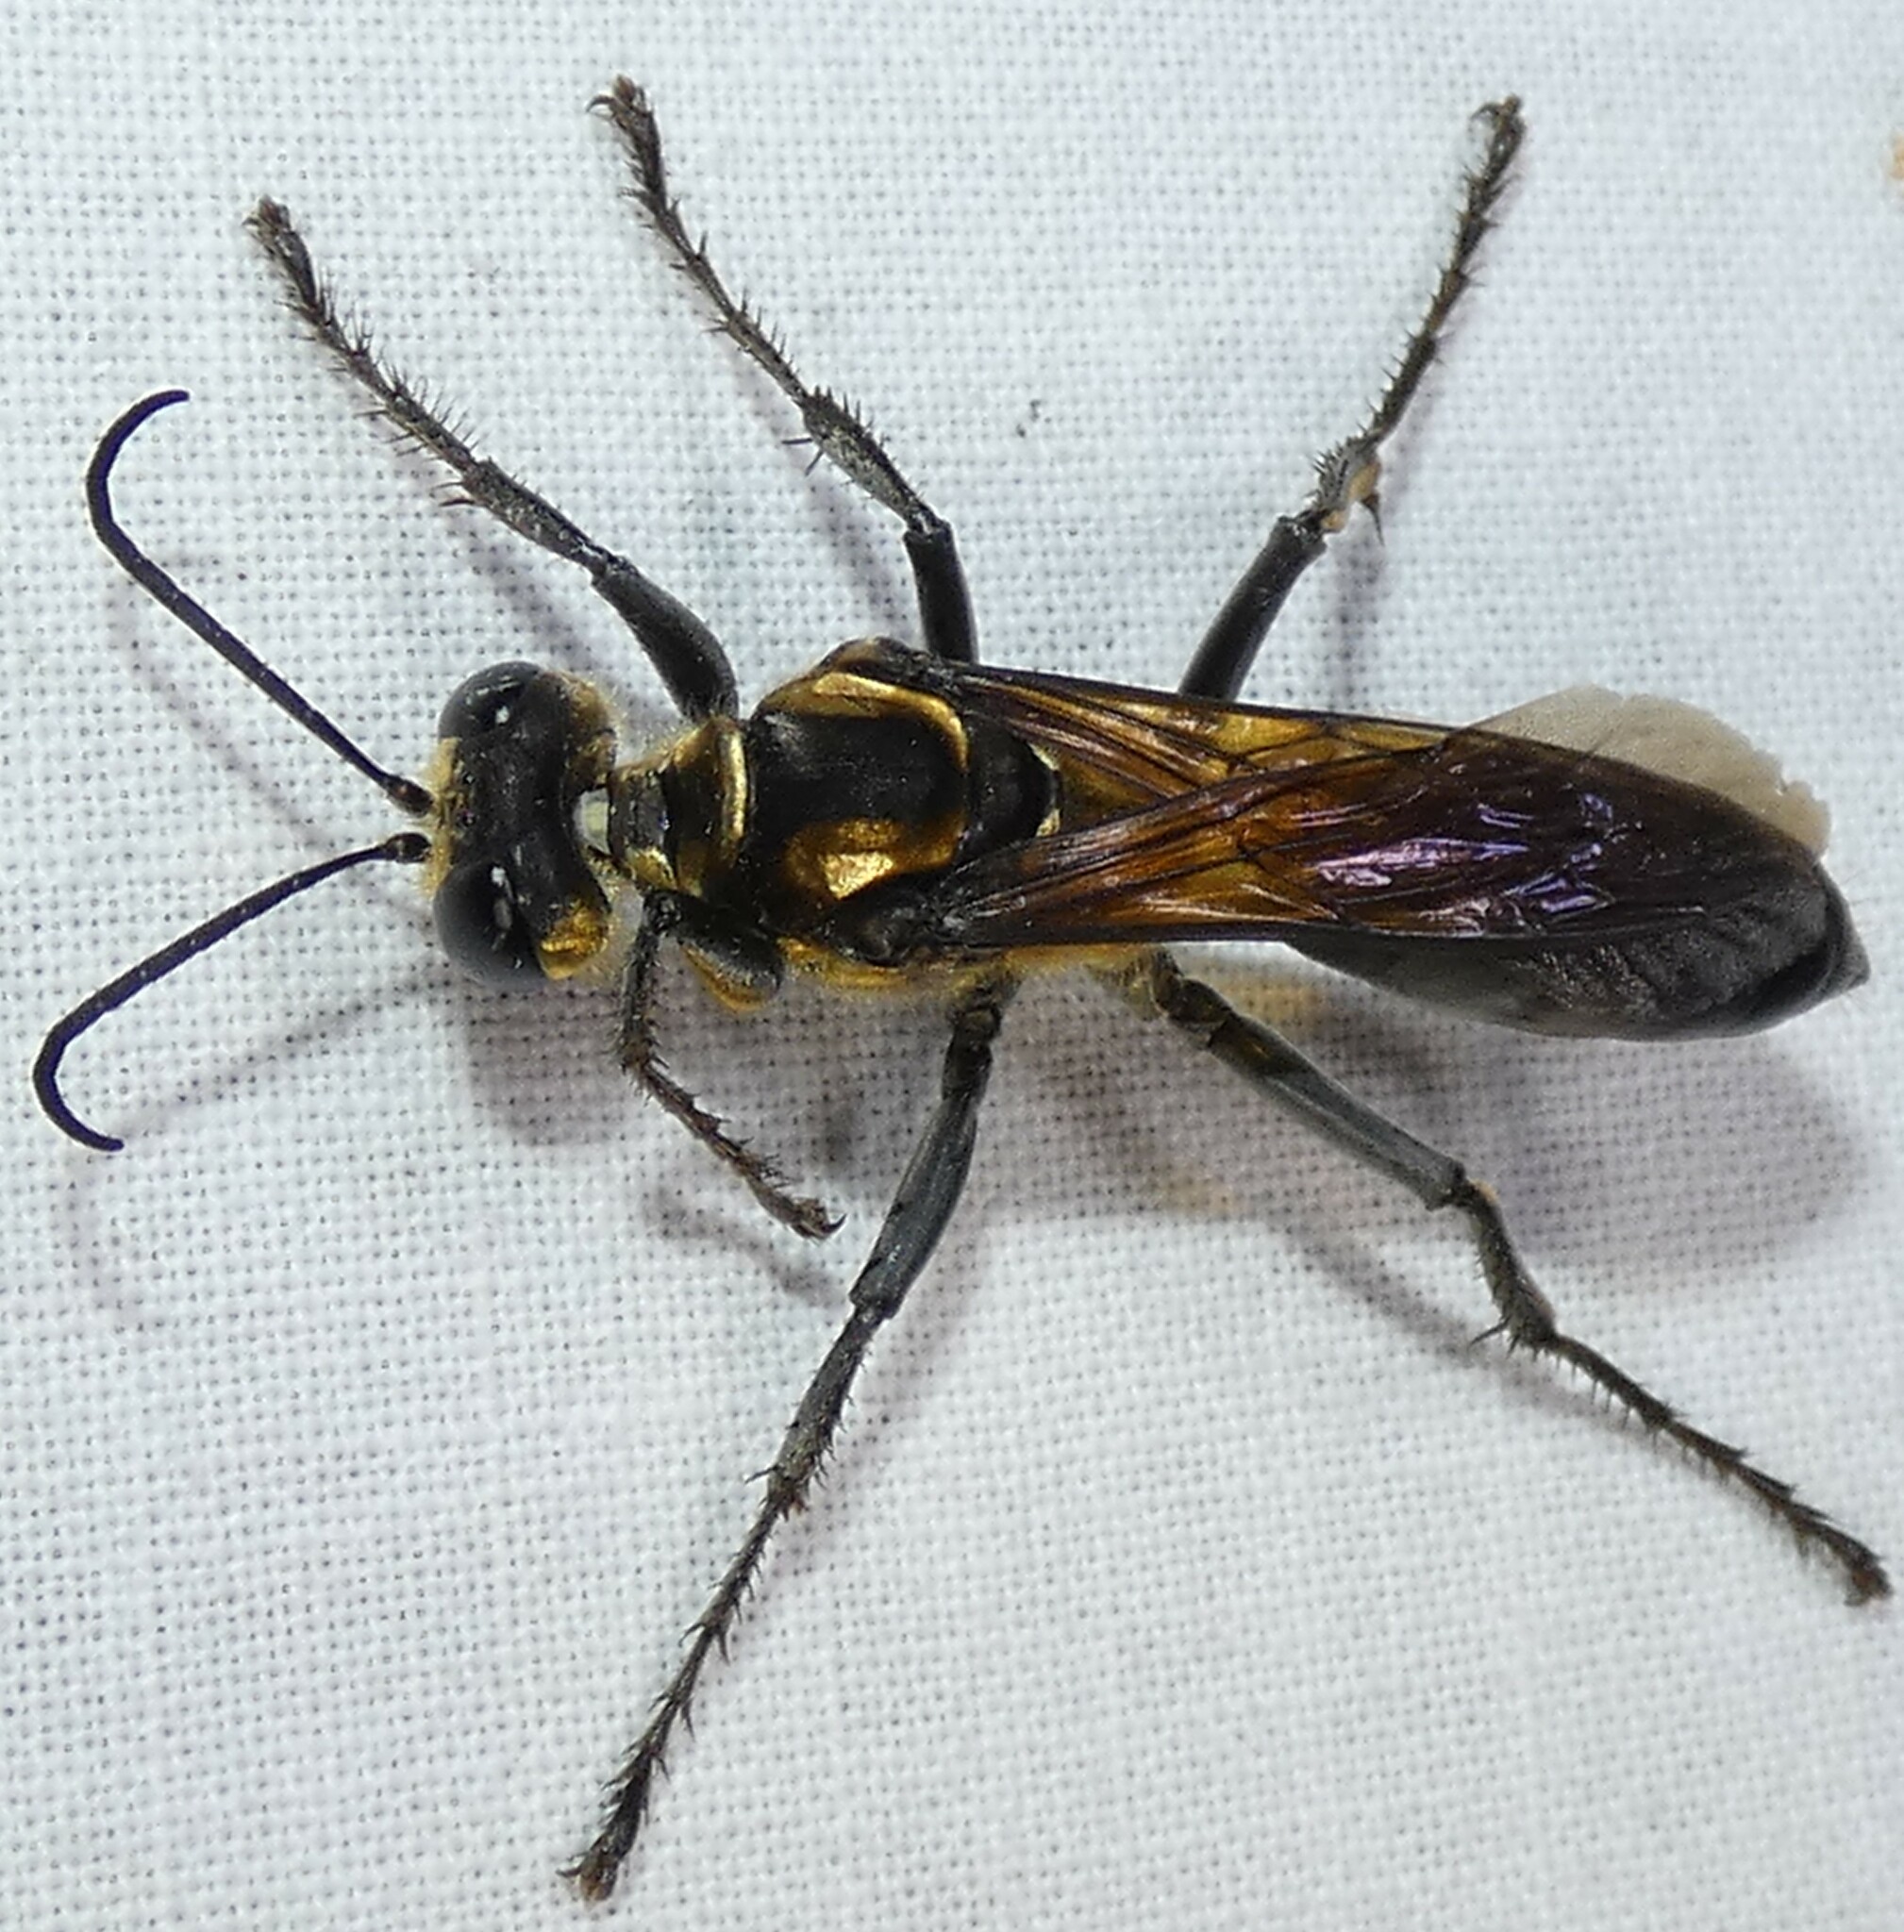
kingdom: Animalia
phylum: Arthropoda
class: Insecta
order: Hymenoptera
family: Sphecidae
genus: Sphex
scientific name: Sphex habenus
